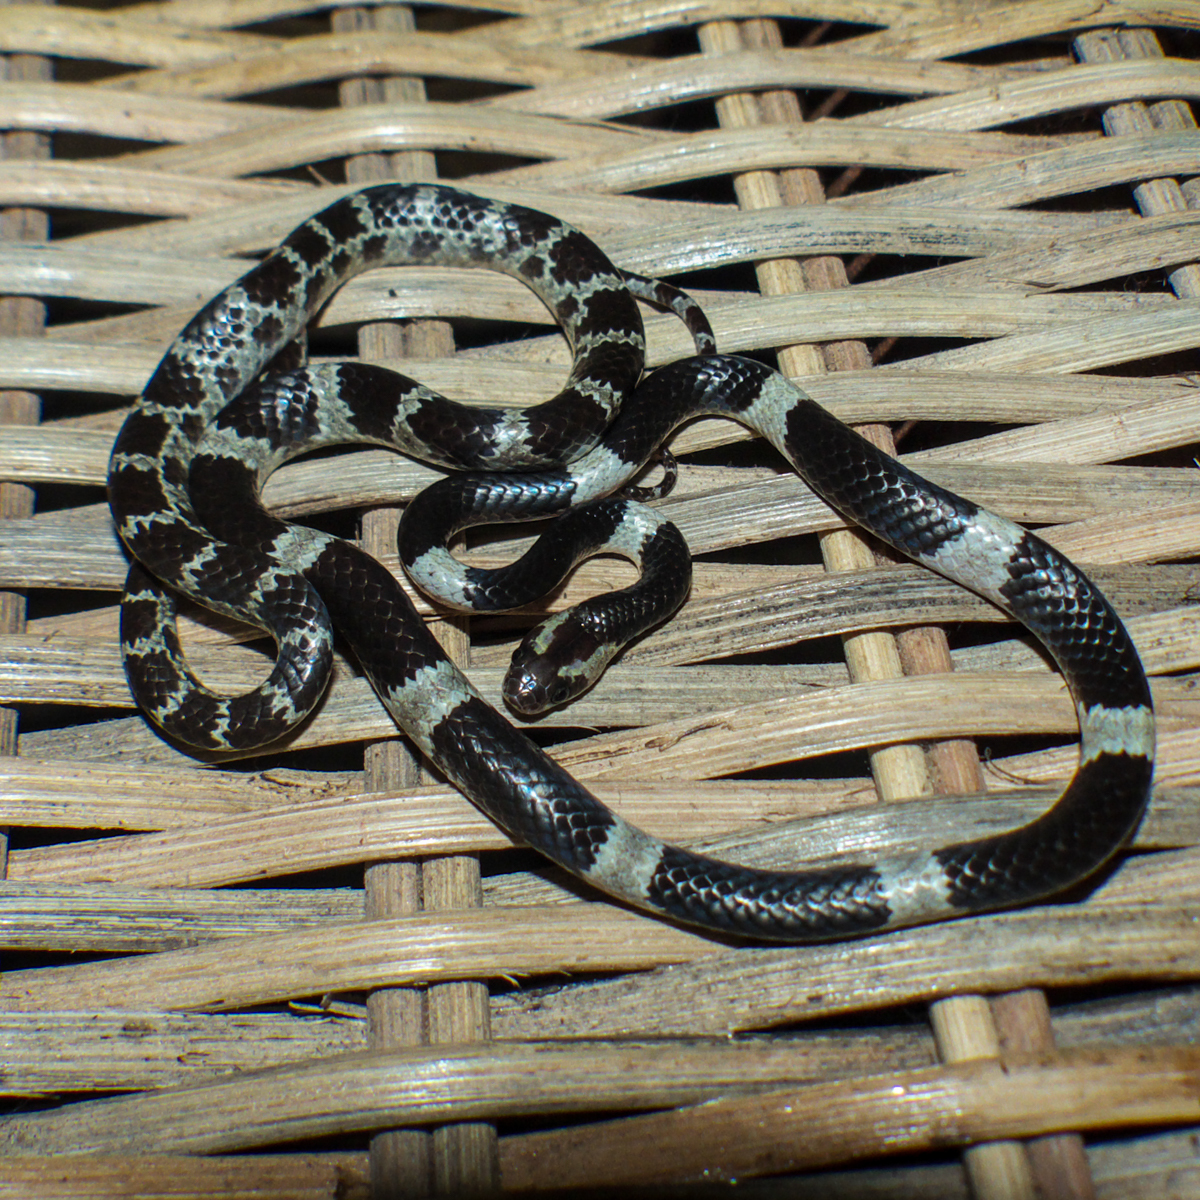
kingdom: Animalia
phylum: Chordata
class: Squamata
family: Colubridae
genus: Lycodon
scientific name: Lycodon davisonii
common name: Blanford's bridal snake
